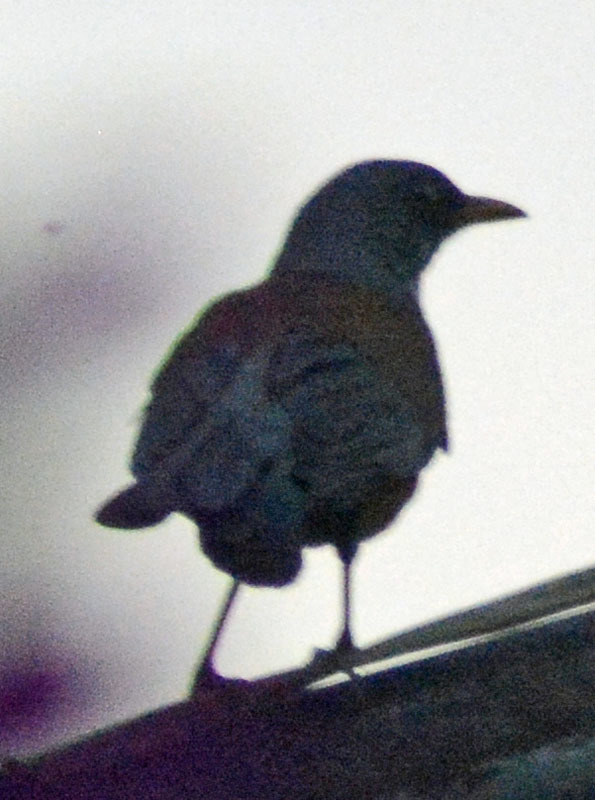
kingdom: Animalia
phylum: Chordata
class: Aves
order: Passeriformes
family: Turdidae
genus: Turdus
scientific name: Turdus rufopalliatus
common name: Rufous-backed robin
